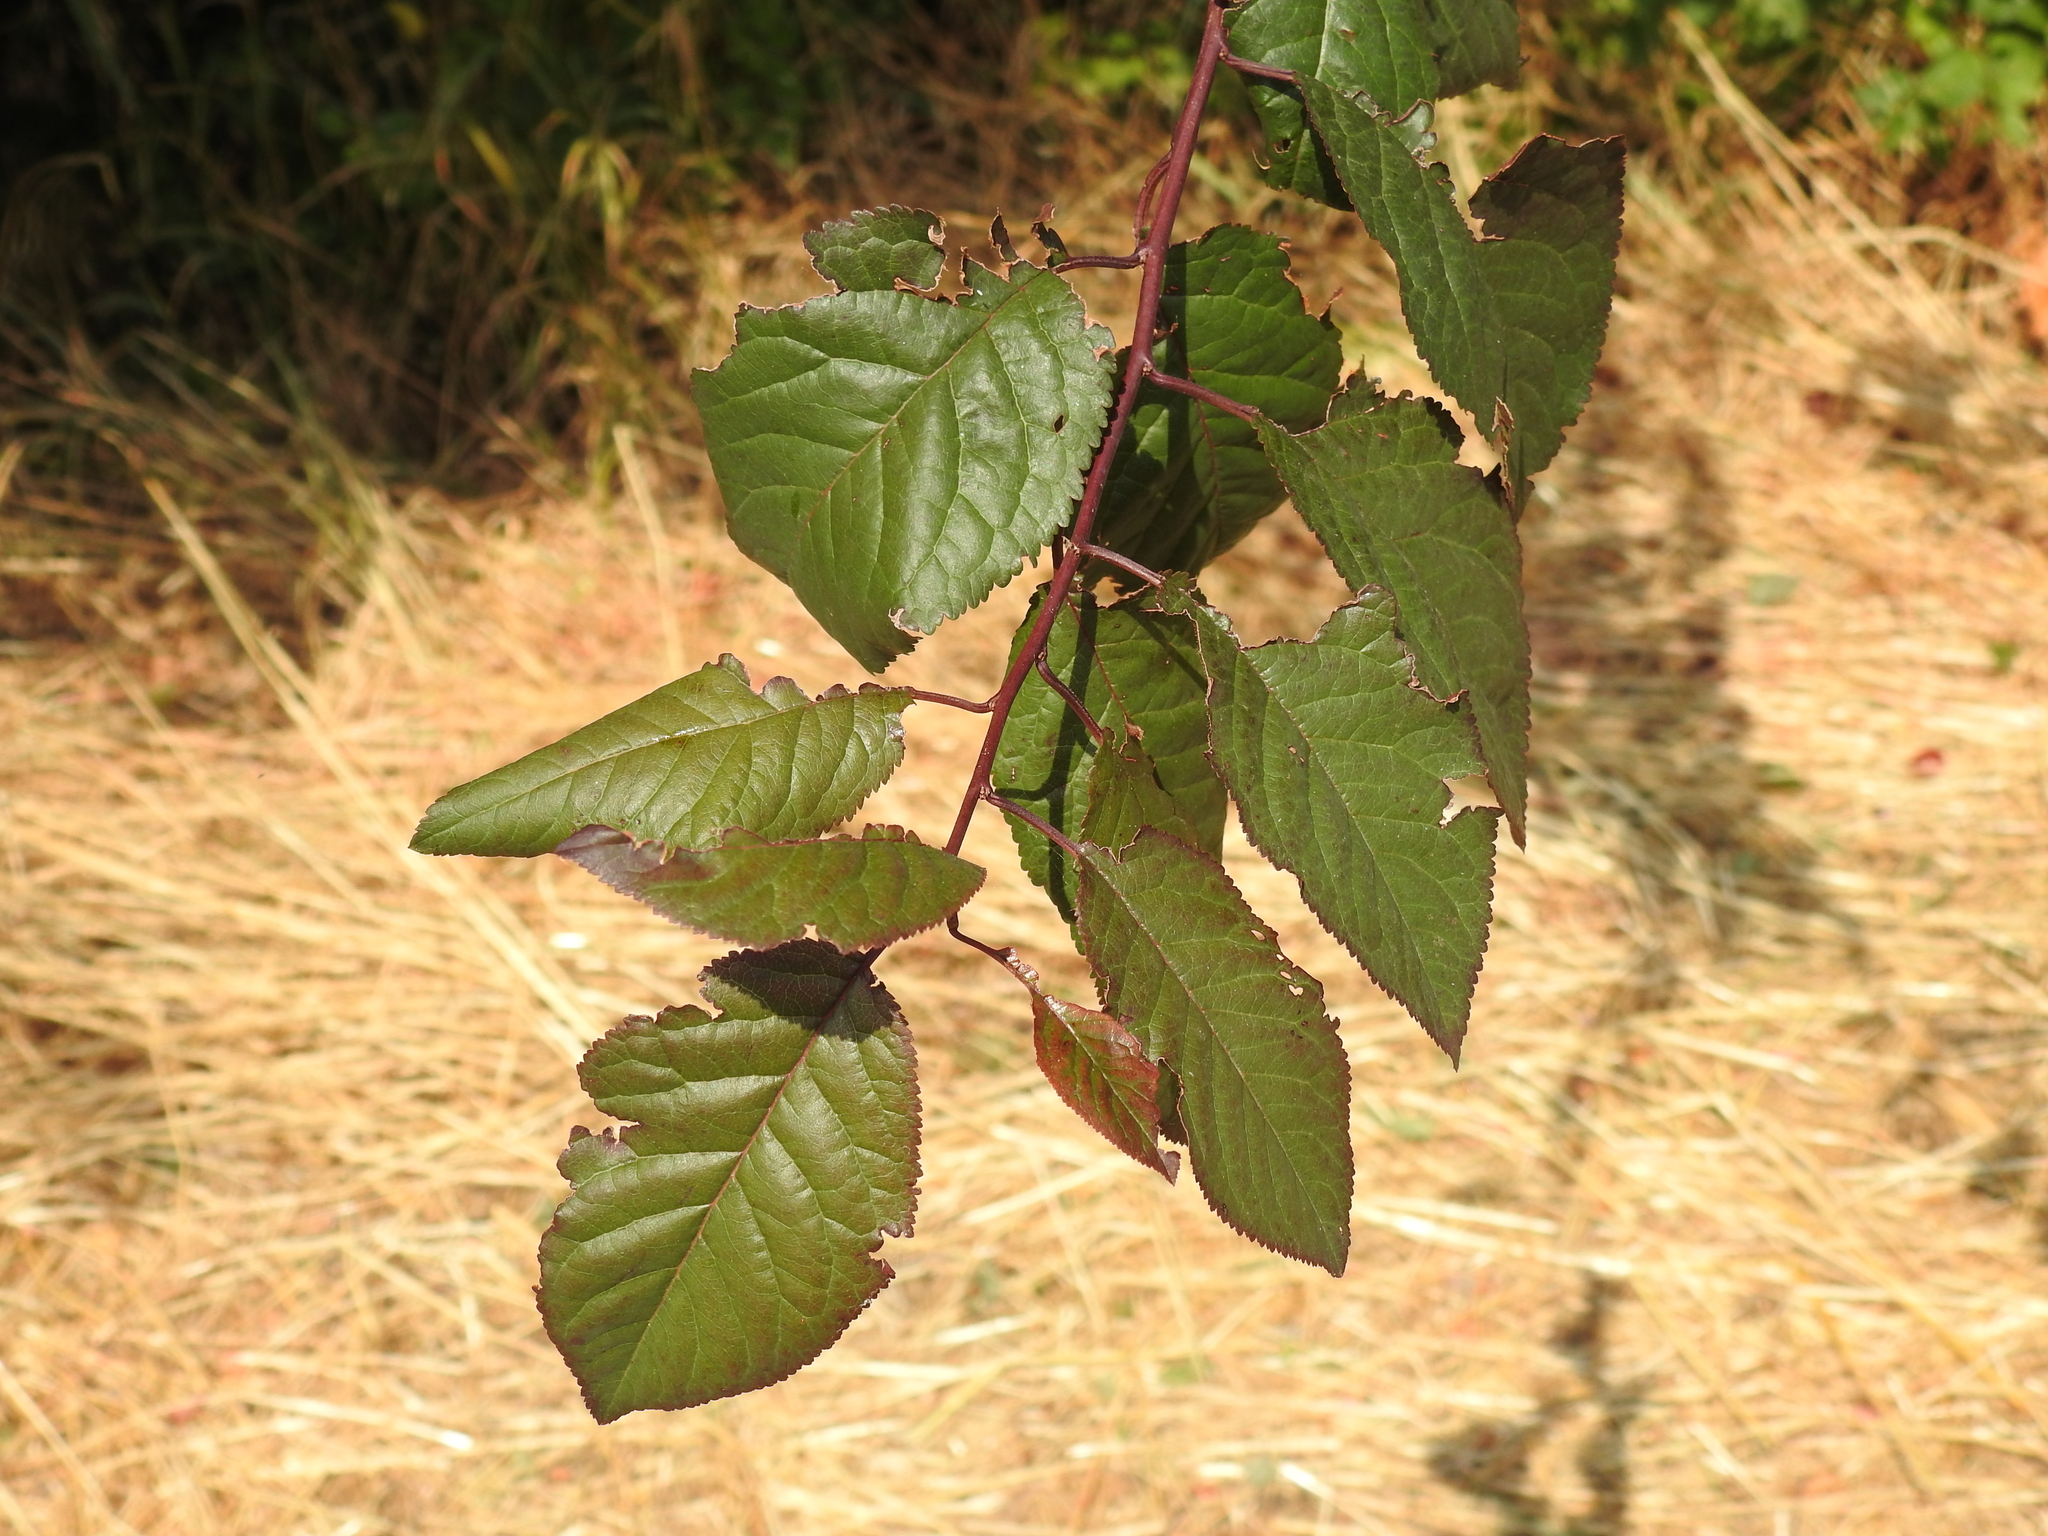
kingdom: Plantae
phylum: Tracheophyta
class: Magnoliopsida
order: Rosales
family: Rosaceae
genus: Prunus
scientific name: Prunus cerasifera
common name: Cherry plum
